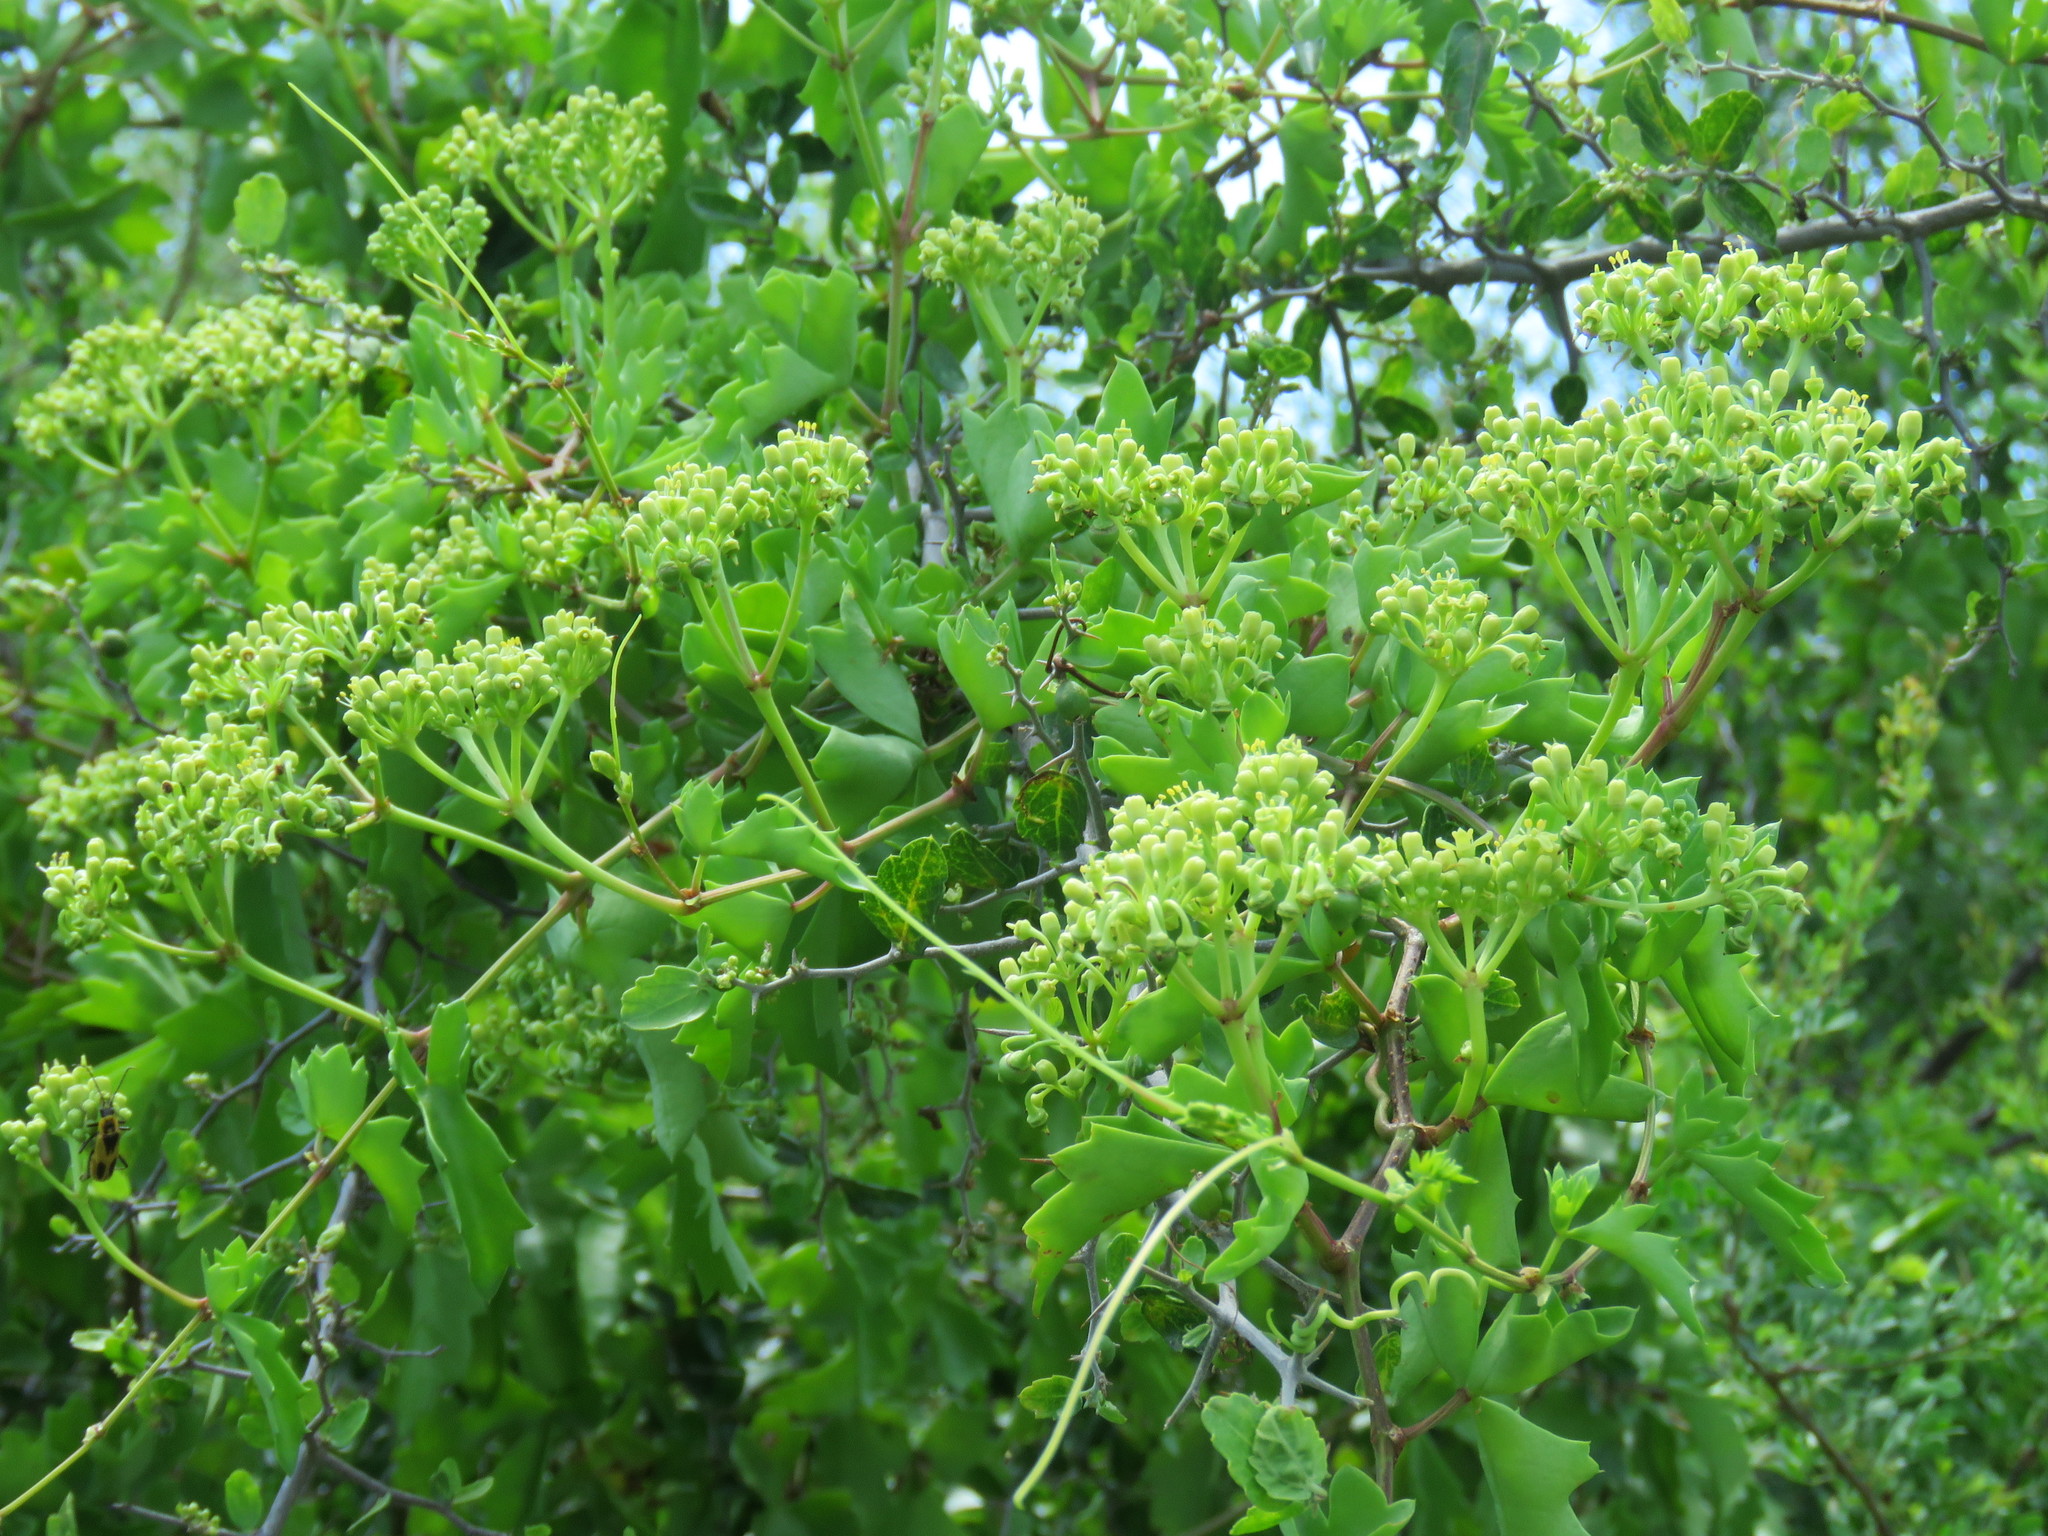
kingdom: Plantae
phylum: Tracheophyta
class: Magnoliopsida
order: Vitales
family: Vitaceae
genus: Cissus
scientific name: Cissus trifoliata
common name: Vine-sorrel
